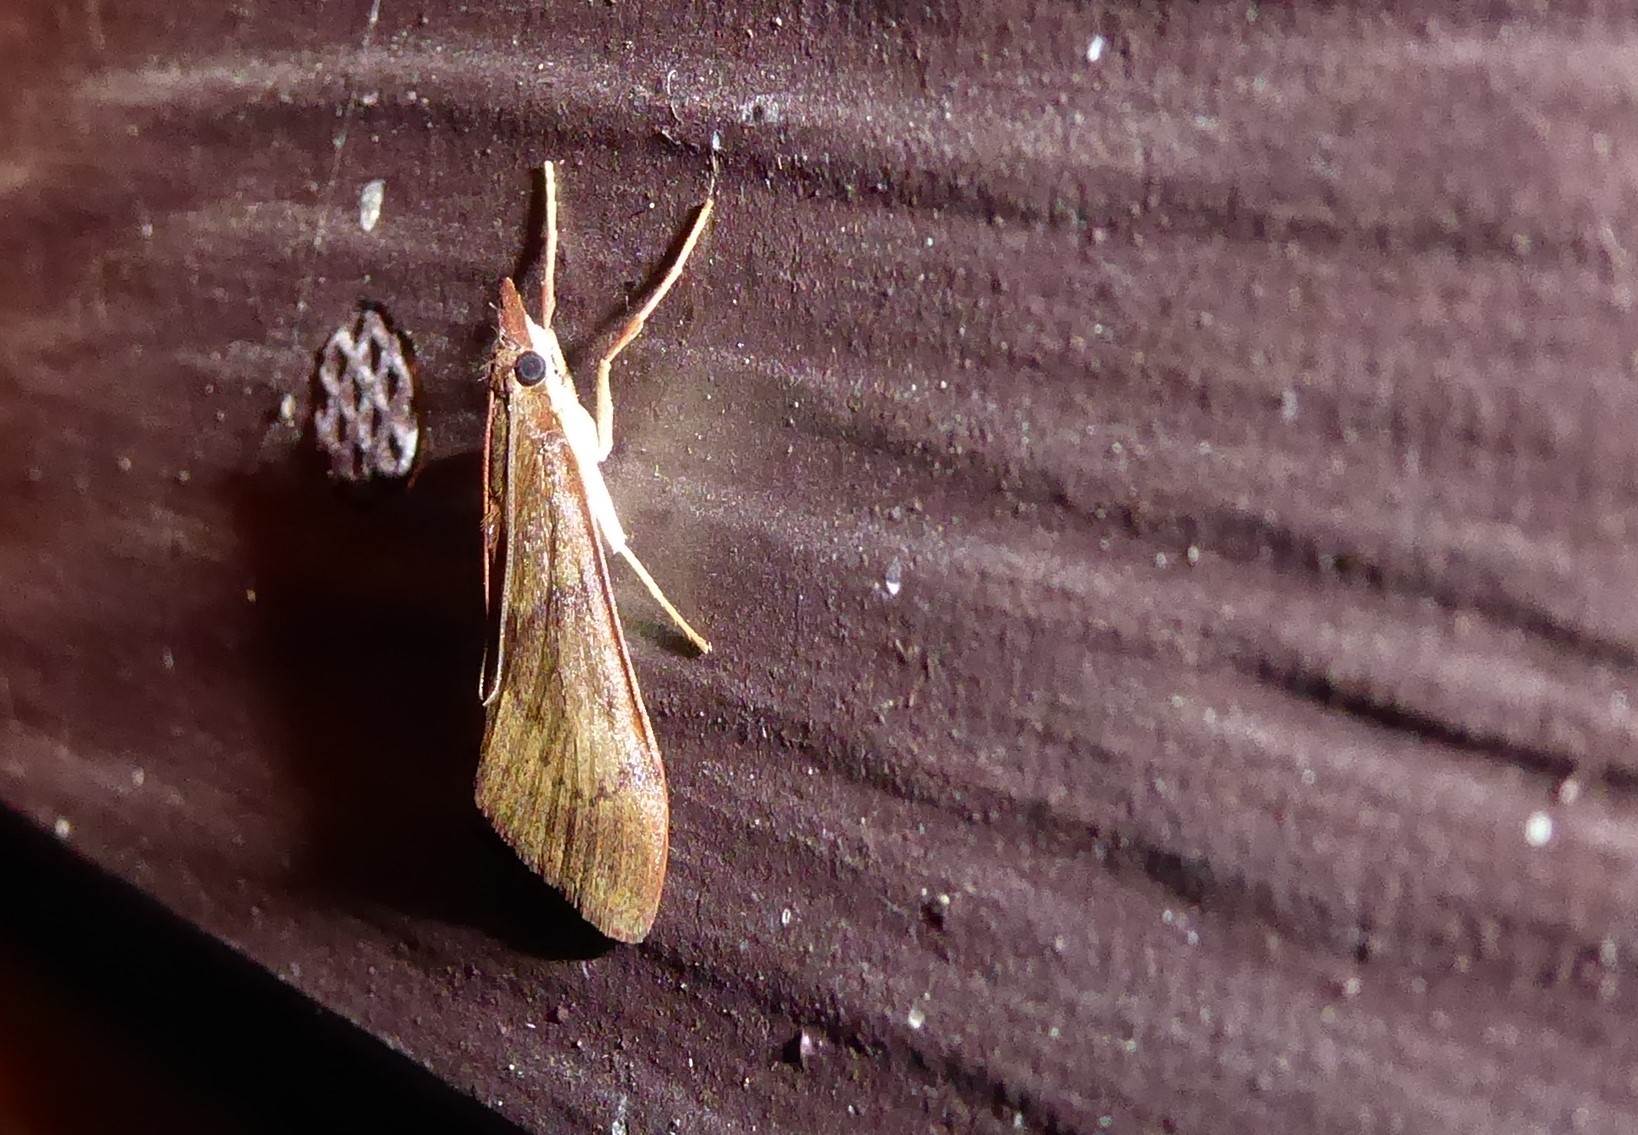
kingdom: Animalia
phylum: Arthropoda
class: Insecta
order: Lepidoptera
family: Crambidae
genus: Uresiphita
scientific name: Uresiphita
